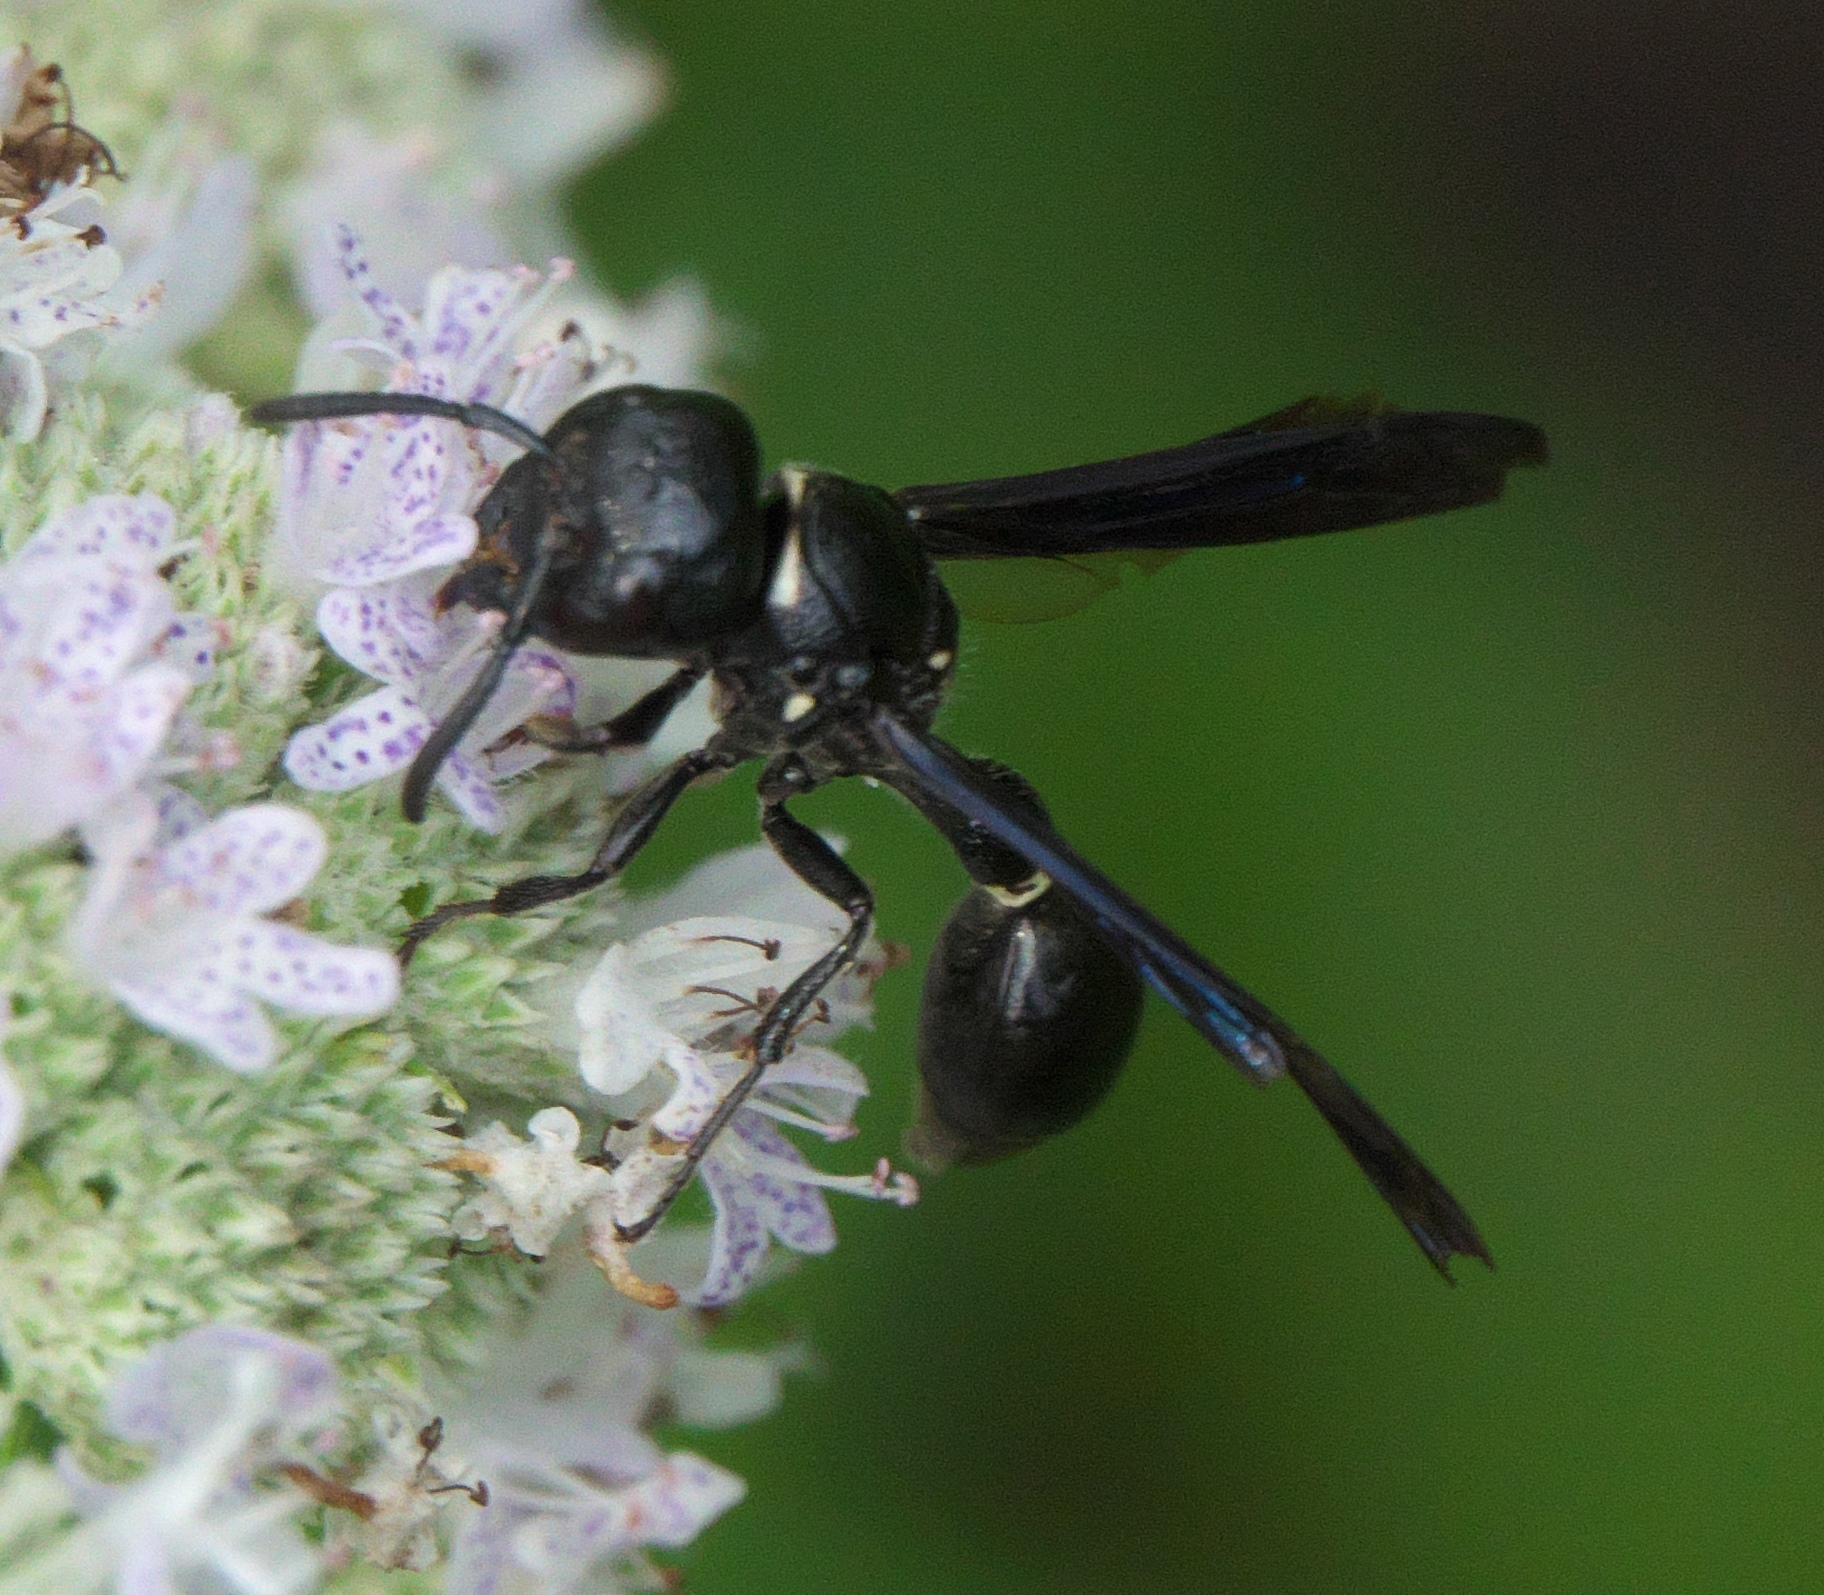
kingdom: Animalia
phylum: Arthropoda
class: Insecta
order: Hymenoptera
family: Eumenidae
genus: Zethus
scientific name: Zethus spinipes
